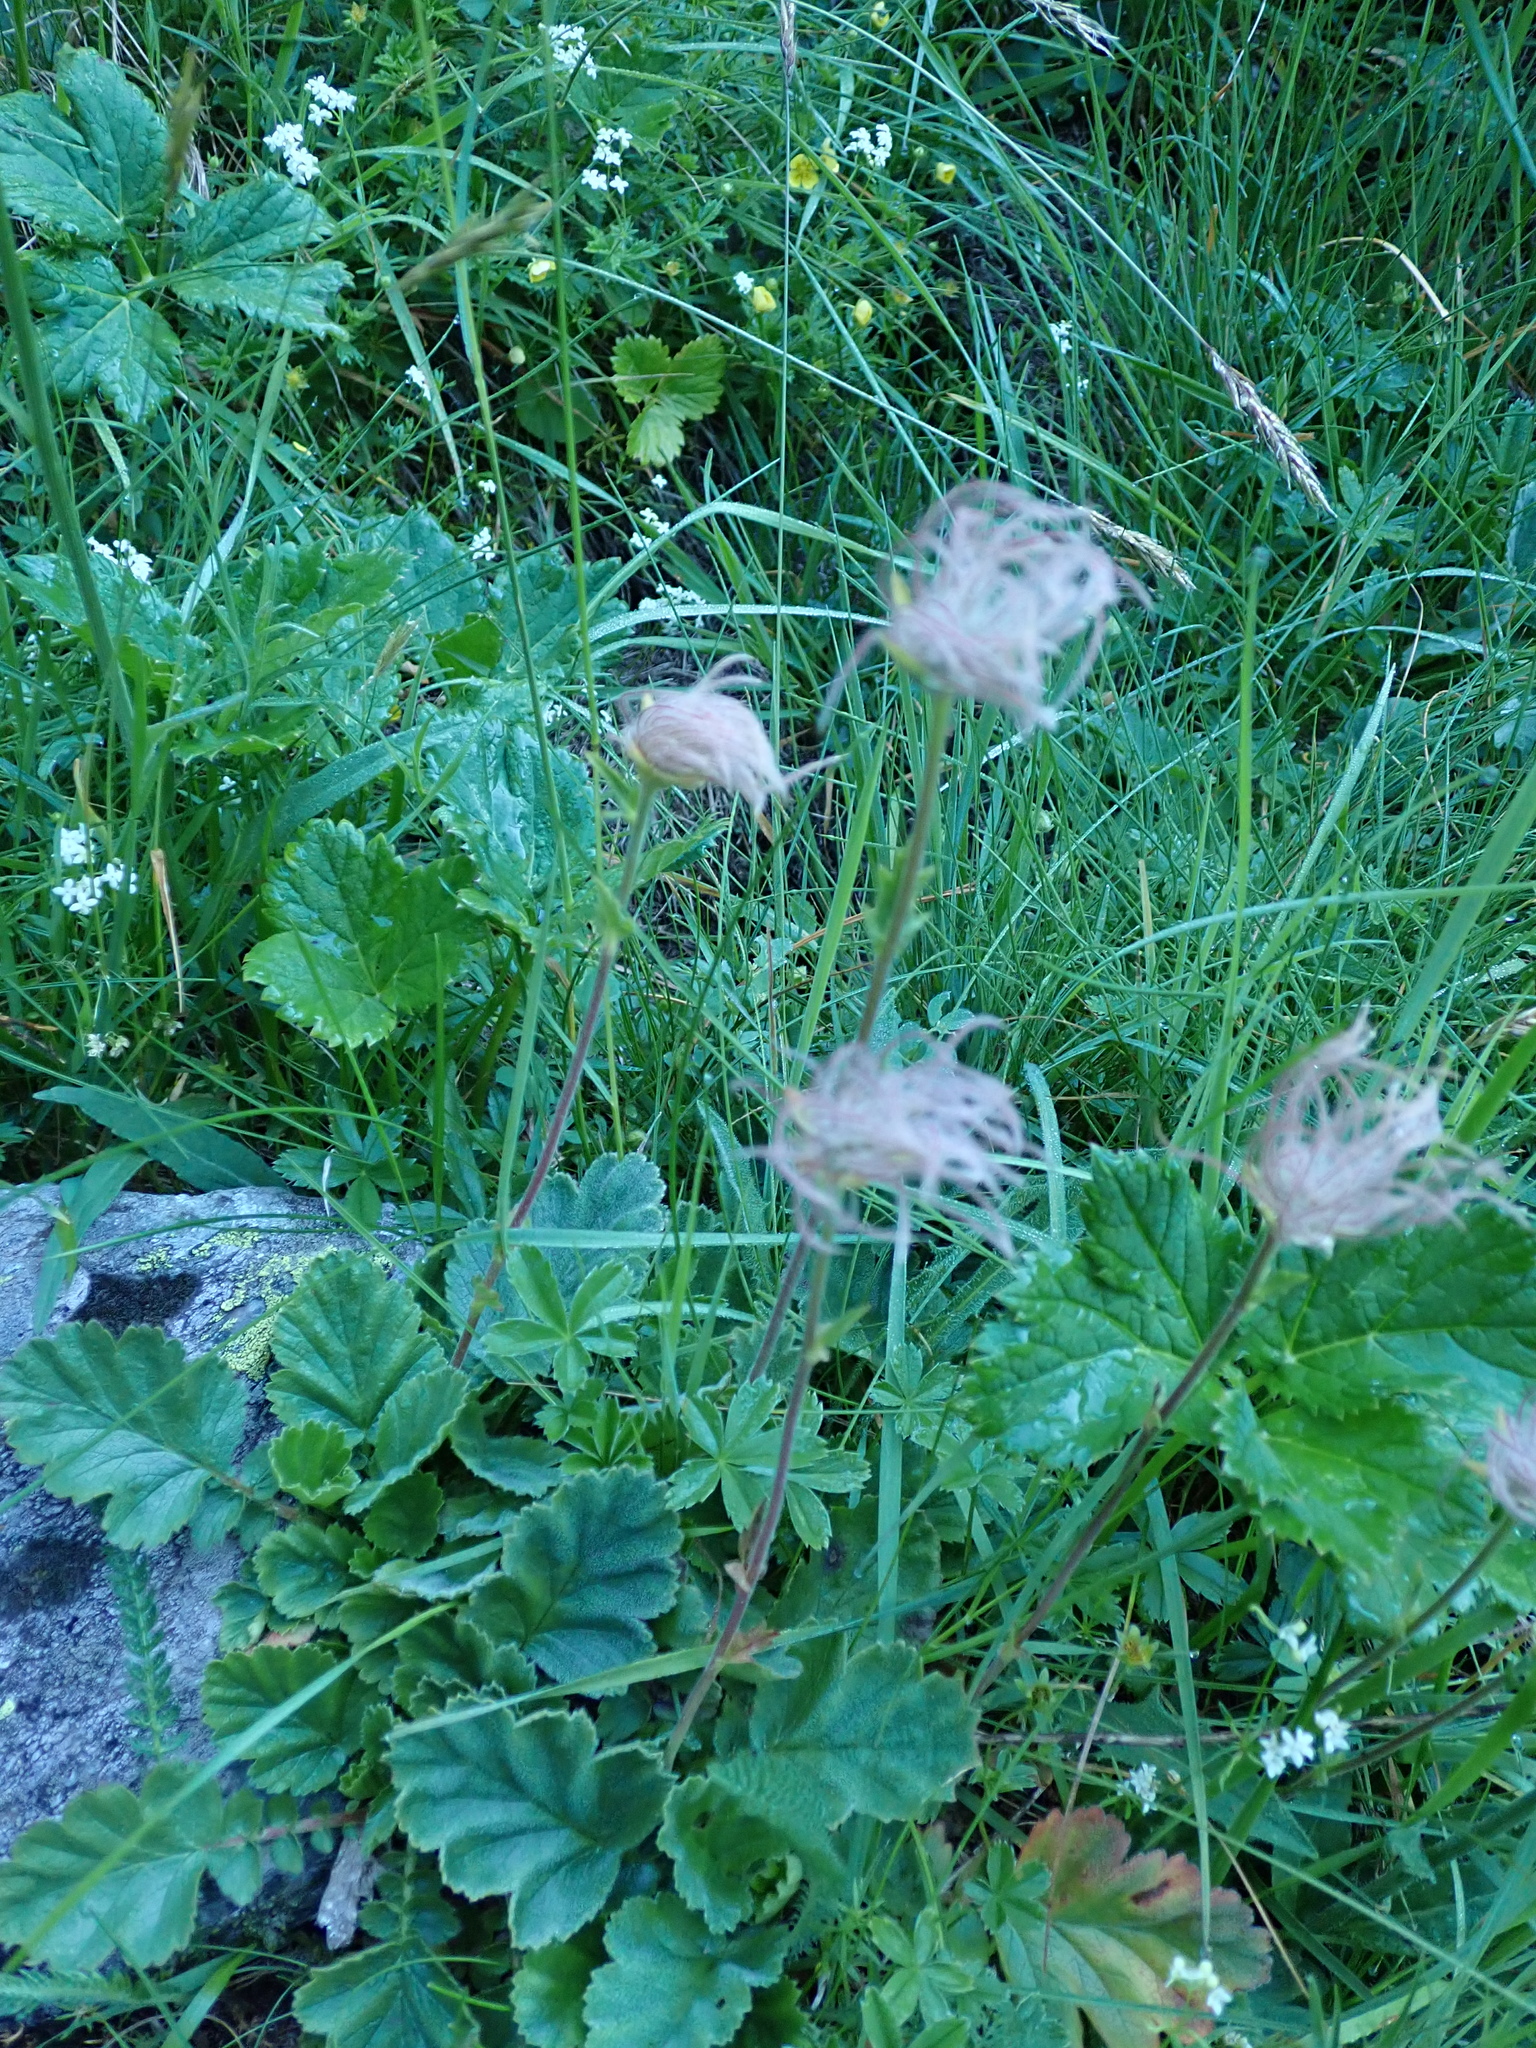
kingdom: Plantae
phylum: Tracheophyta
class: Magnoliopsida
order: Rosales
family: Rosaceae
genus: Geum
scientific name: Geum montanum
